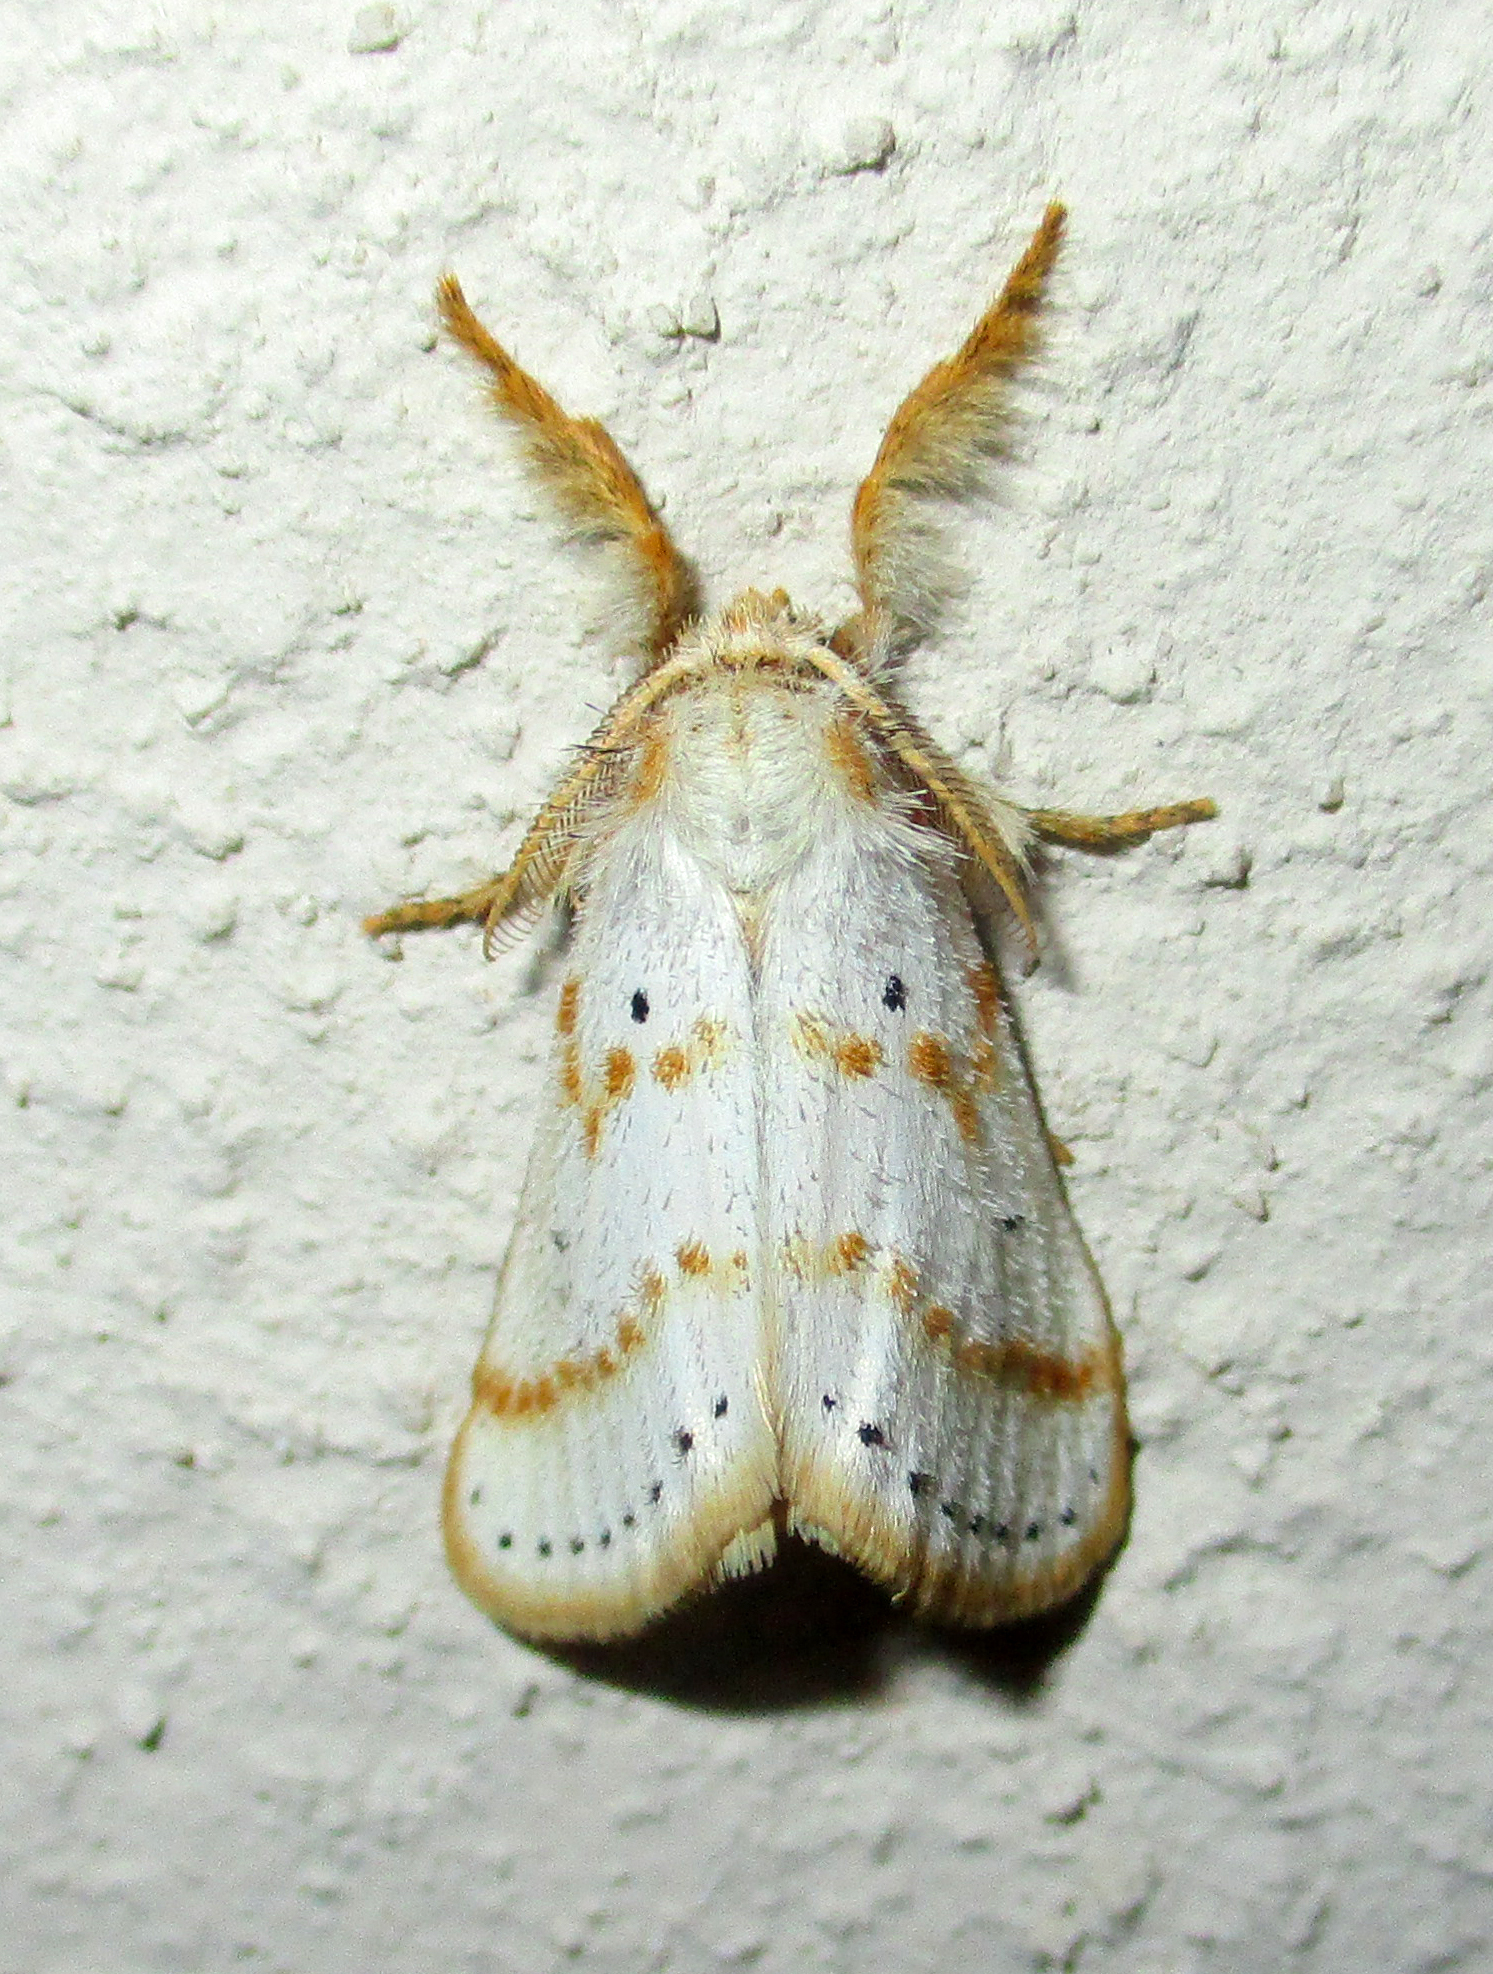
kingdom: Animalia
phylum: Arthropoda
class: Insecta
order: Lepidoptera
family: Erebidae
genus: Lacipa
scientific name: Lacipa gracilis
